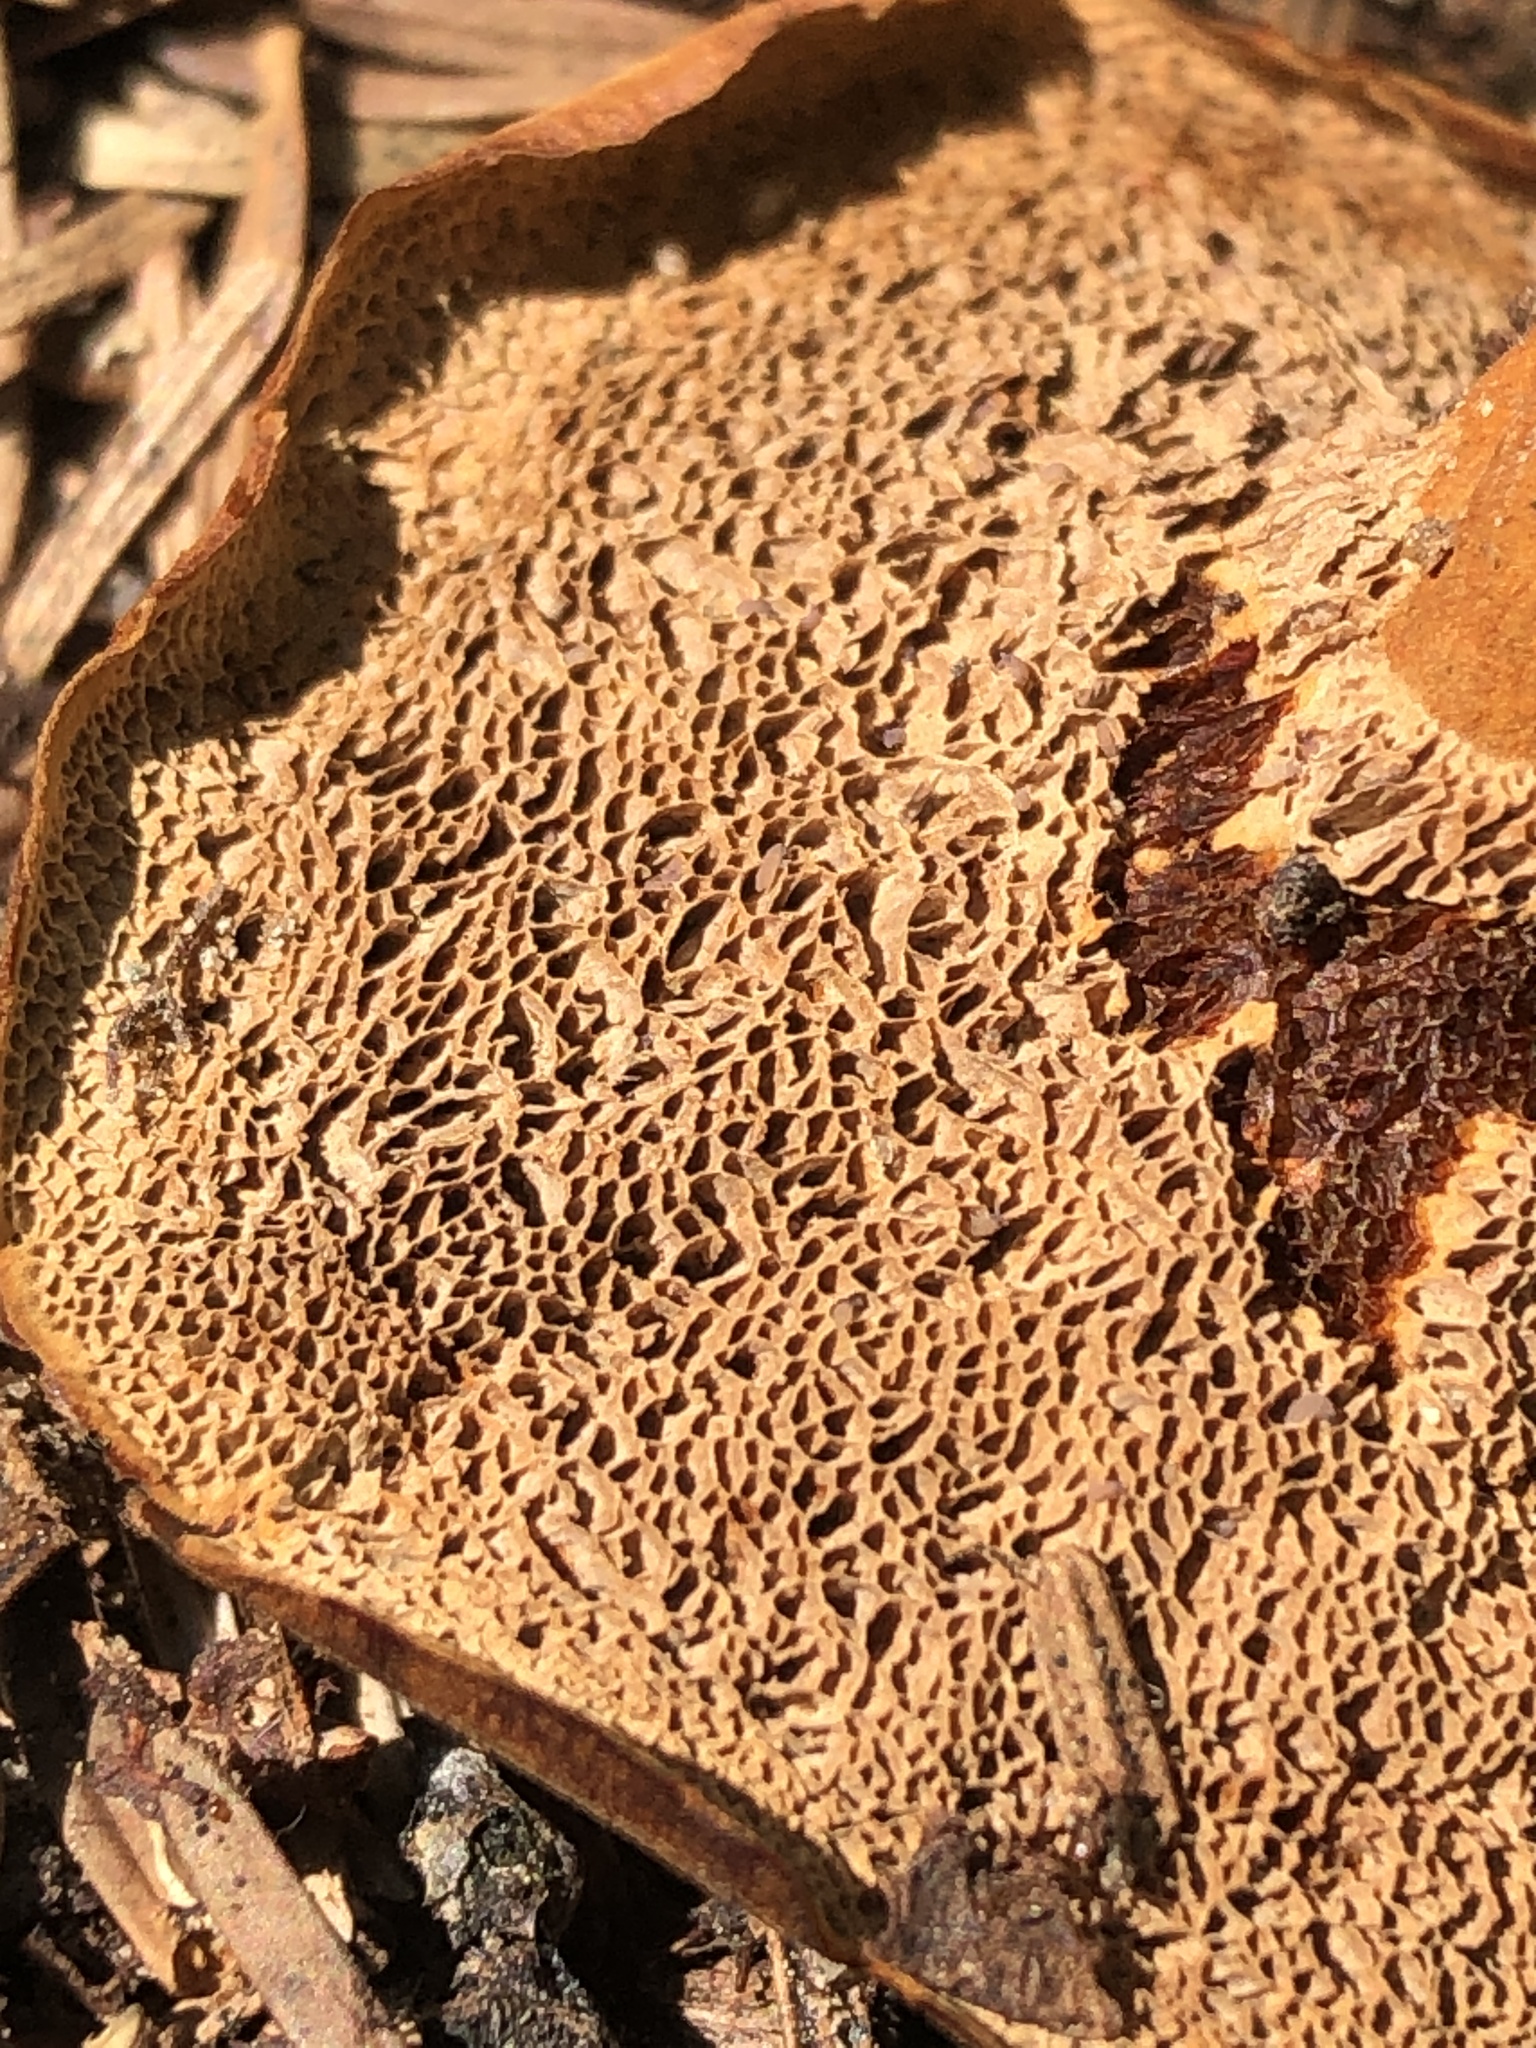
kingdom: Fungi
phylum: Basidiomycota
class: Agaricomycetes
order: Hymenochaetales
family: Hymenochaetaceae
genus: Coltricia
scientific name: Coltricia perennis
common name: Tiger's eye
